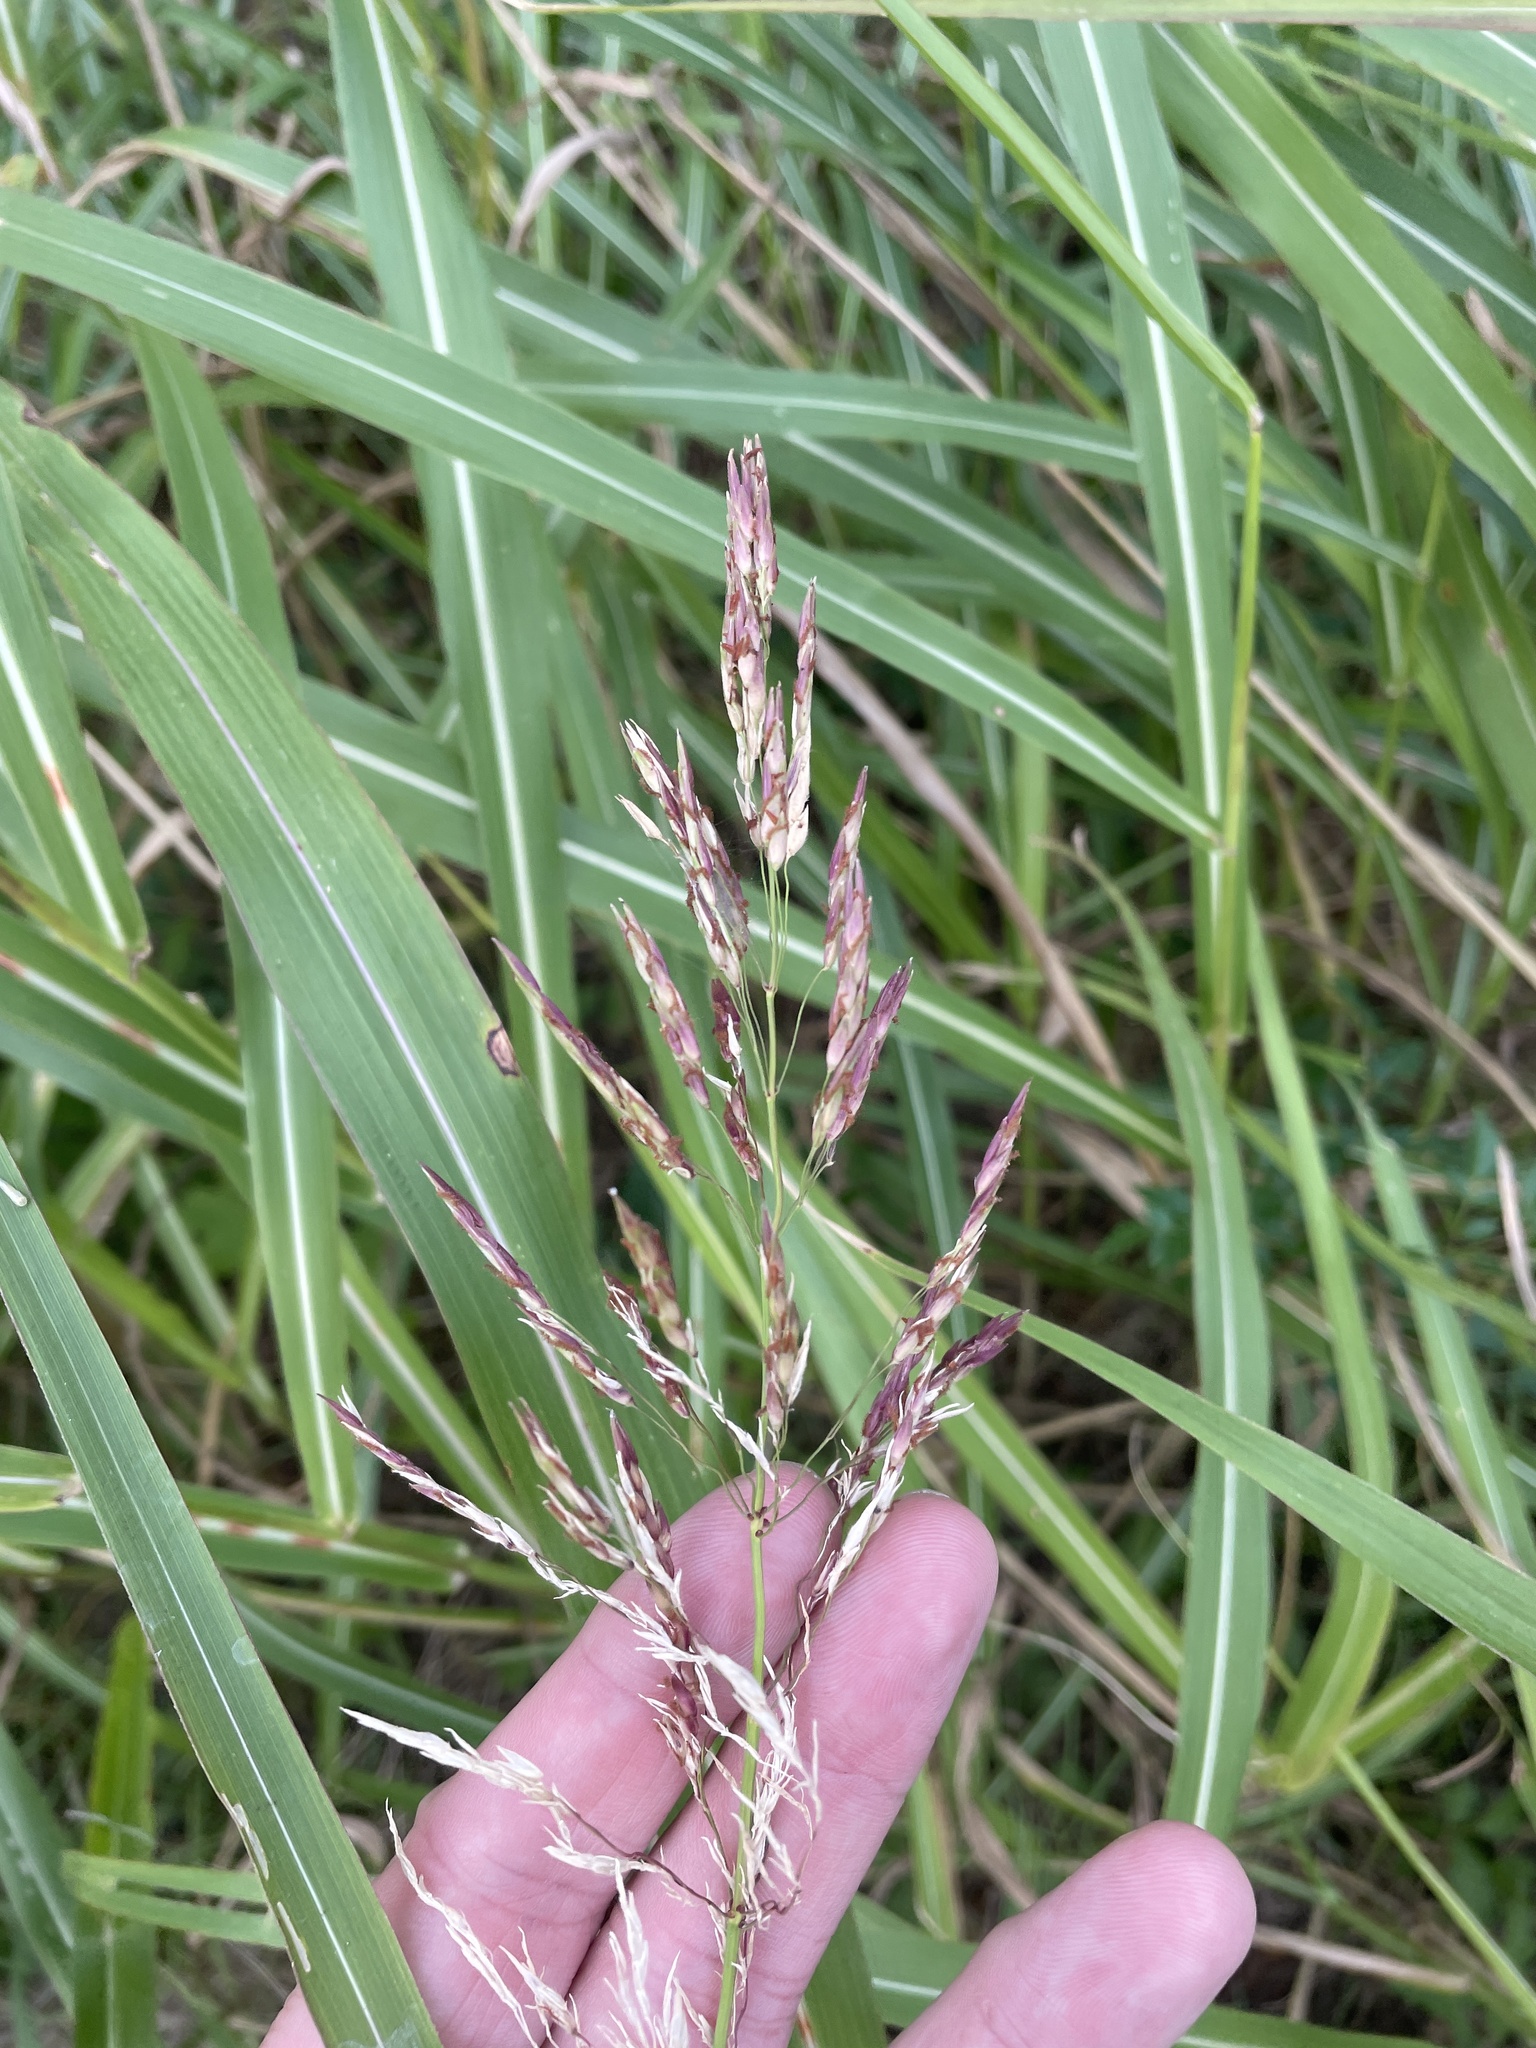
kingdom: Plantae
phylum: Tracheophyta
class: Liliopsida
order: Poales
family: Poaceae
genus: Sorghum
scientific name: Sorghum halepense
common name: Johnson-grass
